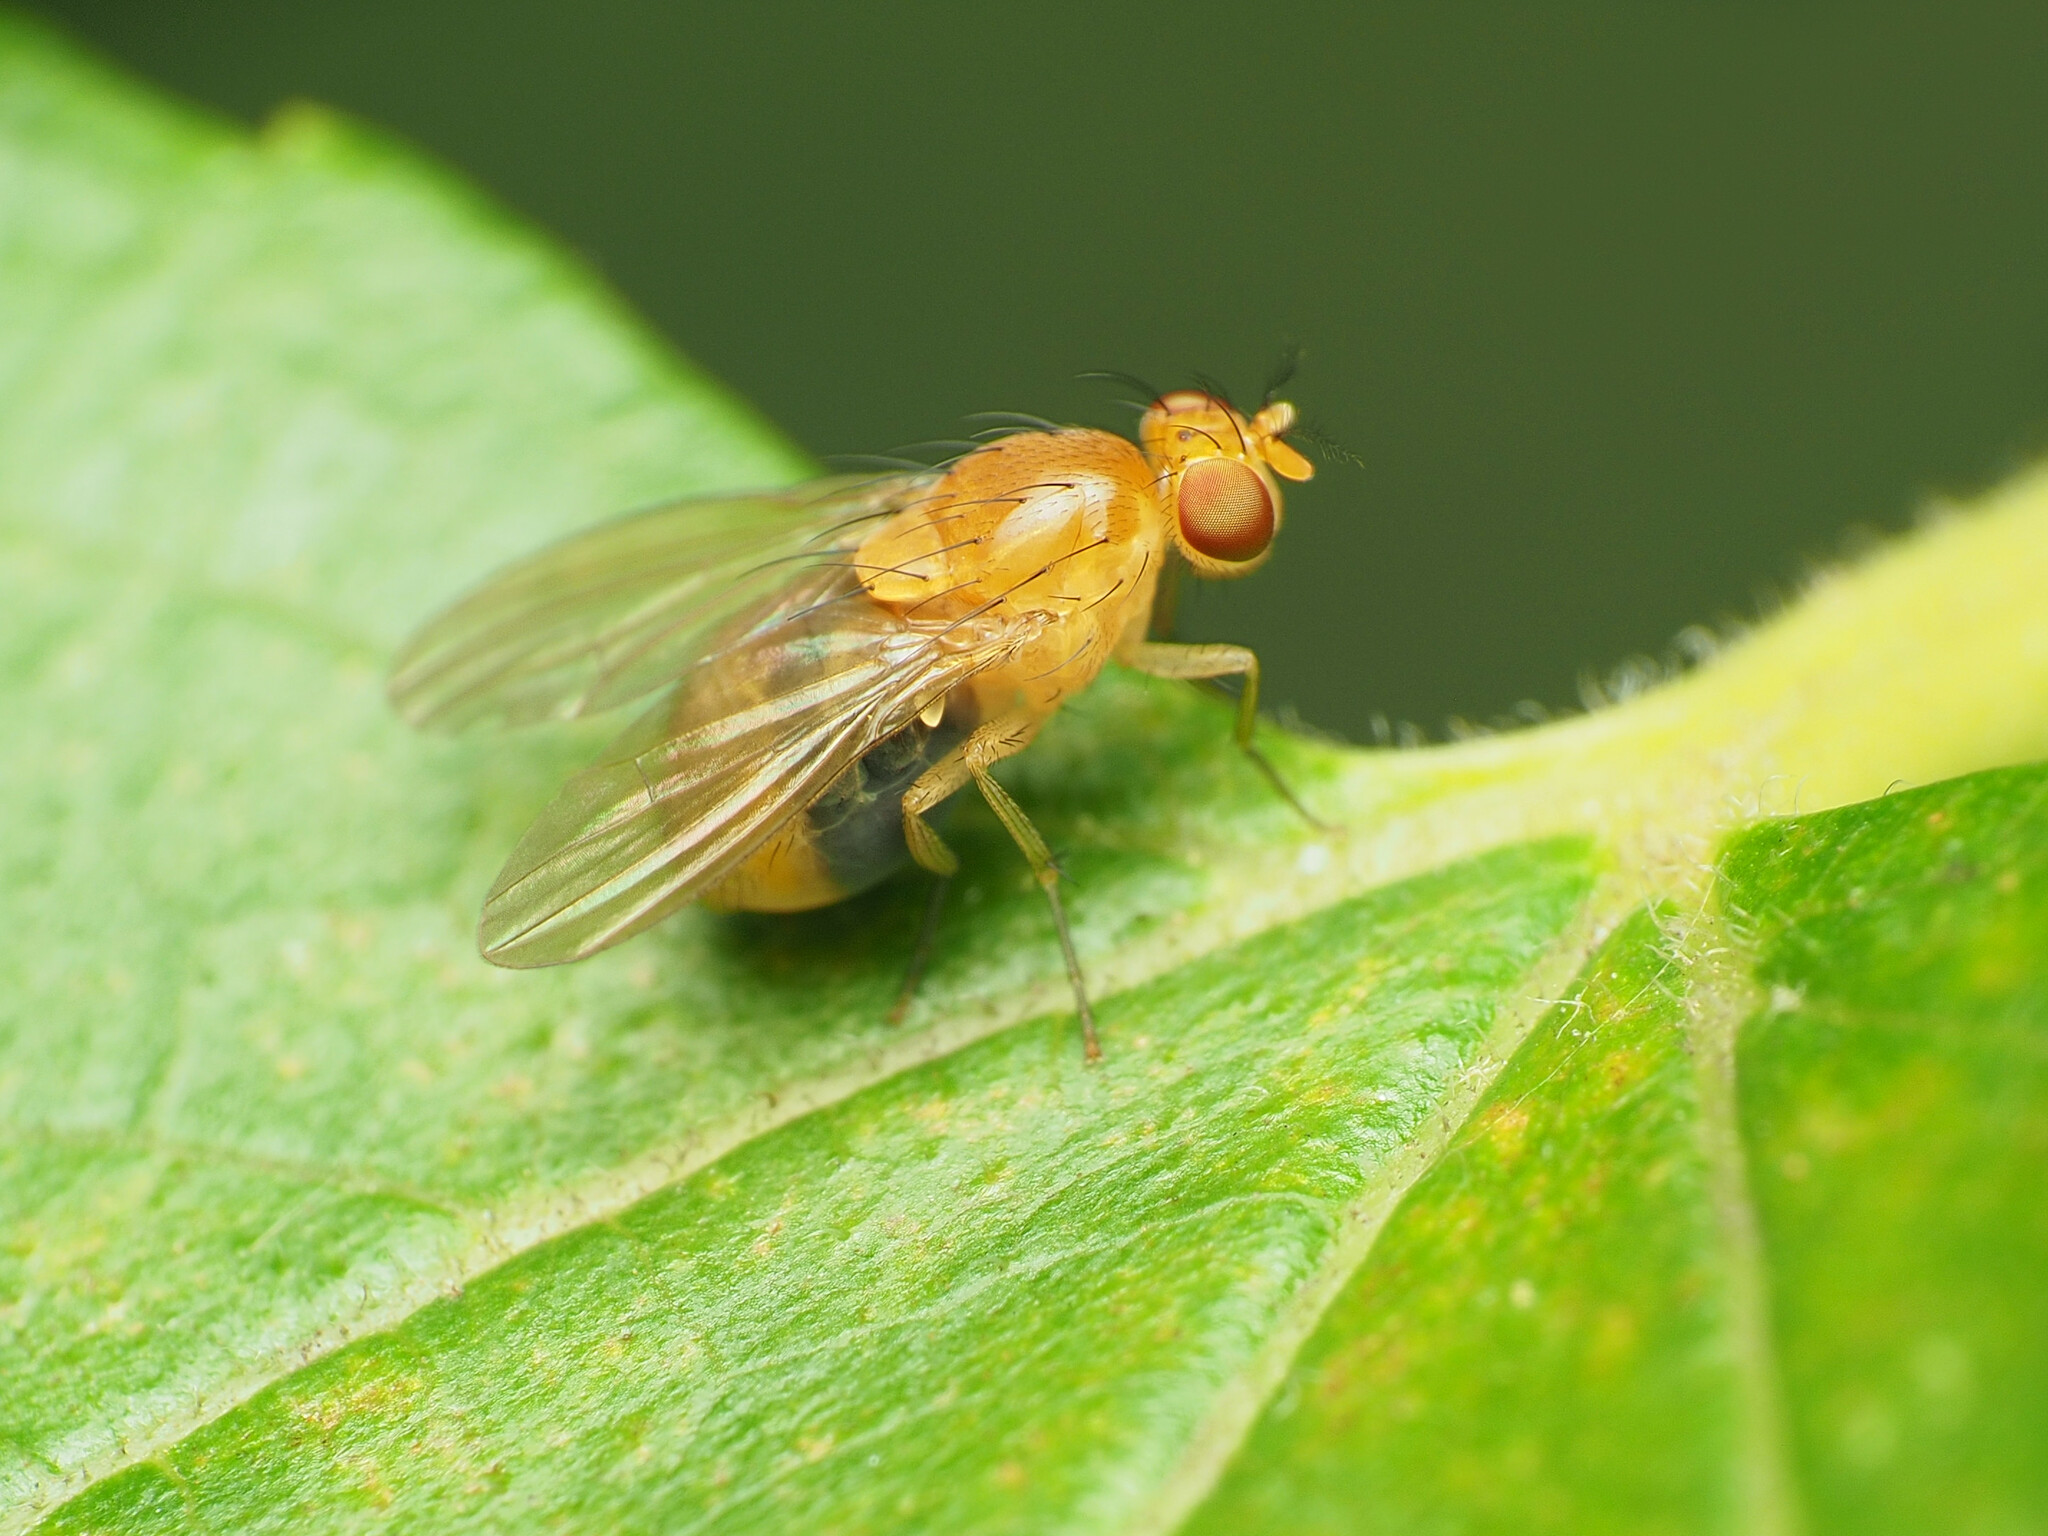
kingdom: Animalia
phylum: Arthropoda
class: Insecta
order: Diptera
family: Lauxaniidae
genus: Neogriphoneura
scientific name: Neogriphoneura sordida
